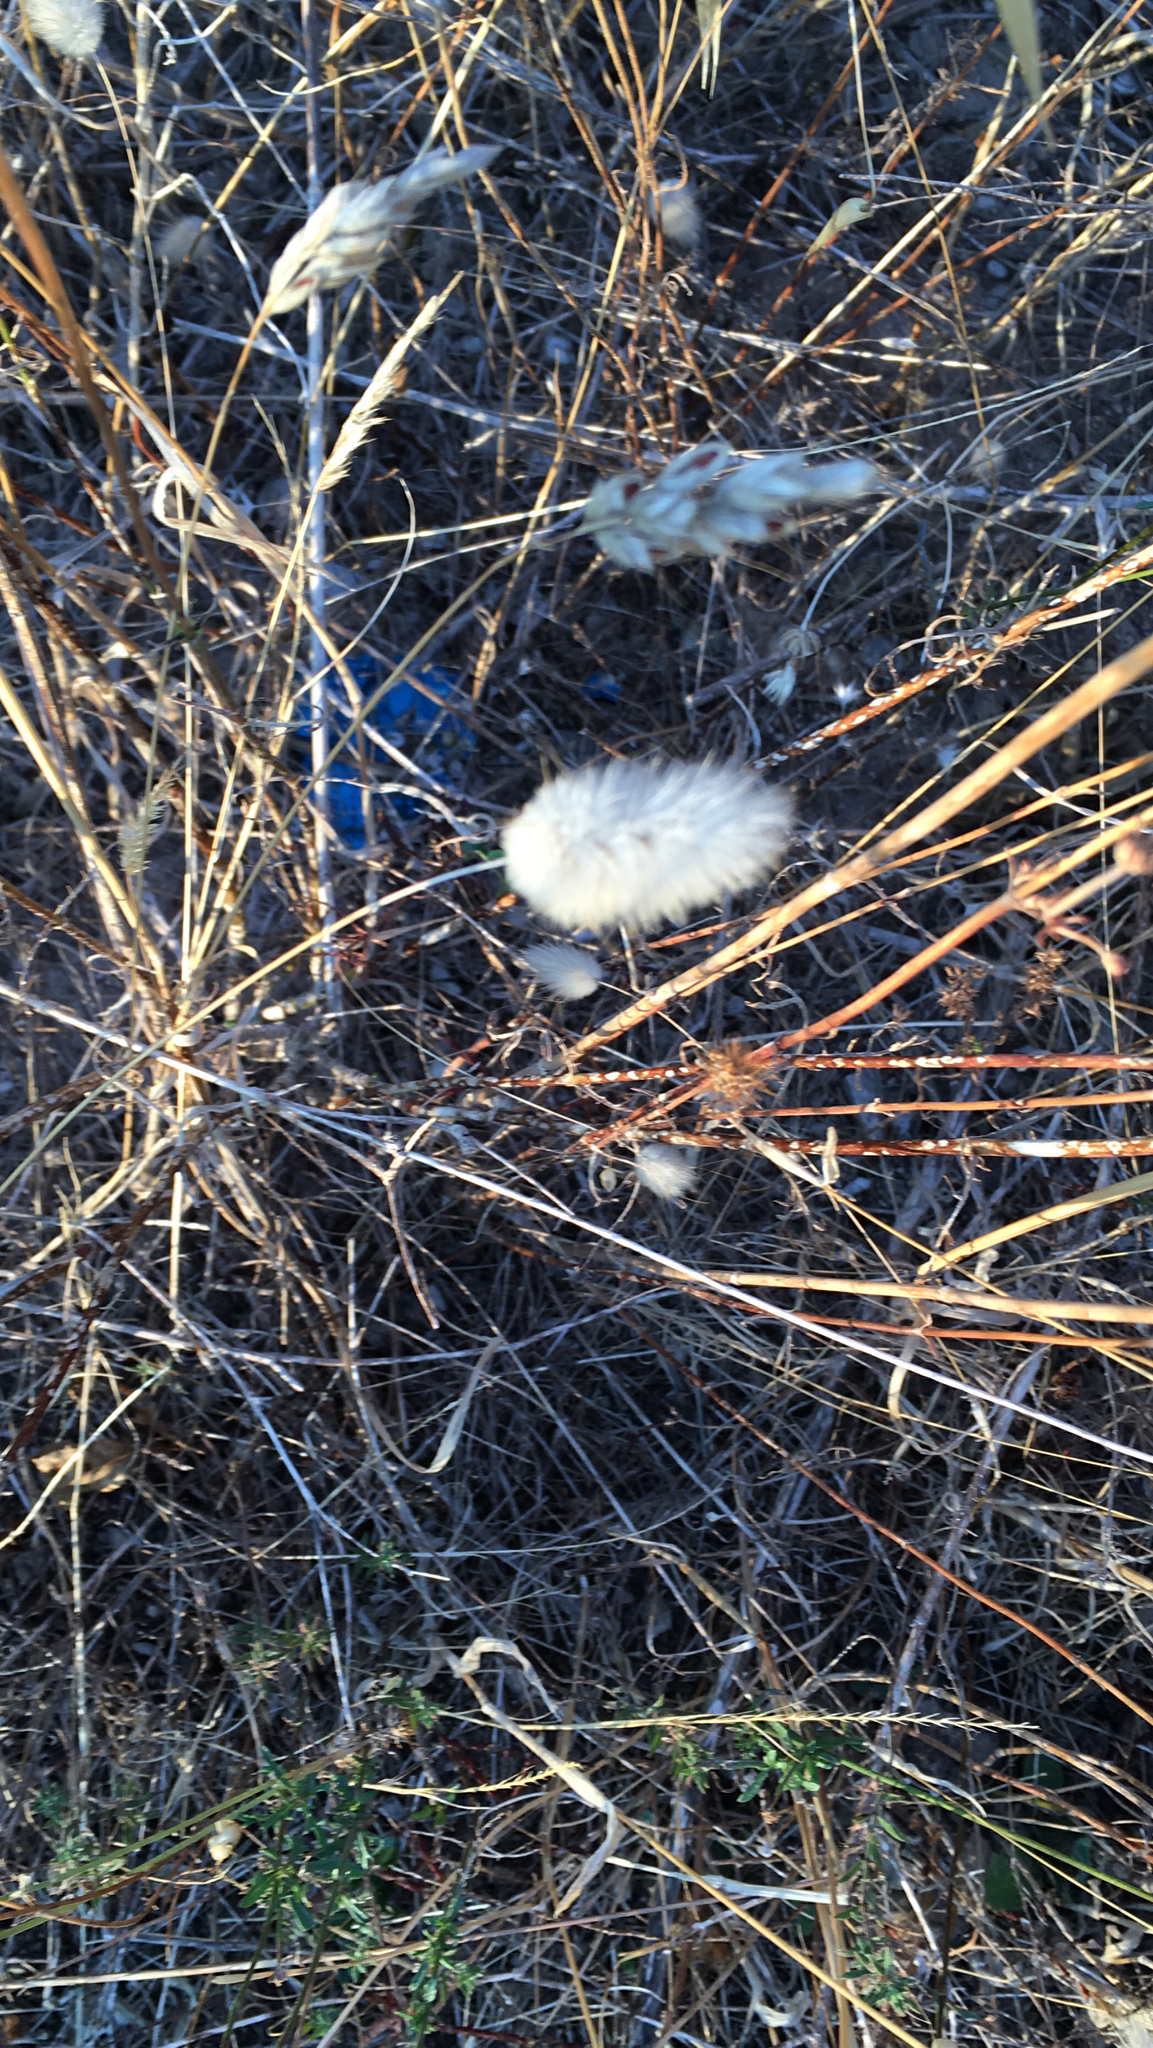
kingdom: Plantae
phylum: Tracheophyta
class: Liliopsida
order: Poales
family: Poaceae
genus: Lagurus
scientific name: Lagurus ovatus
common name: Hare's-tail
